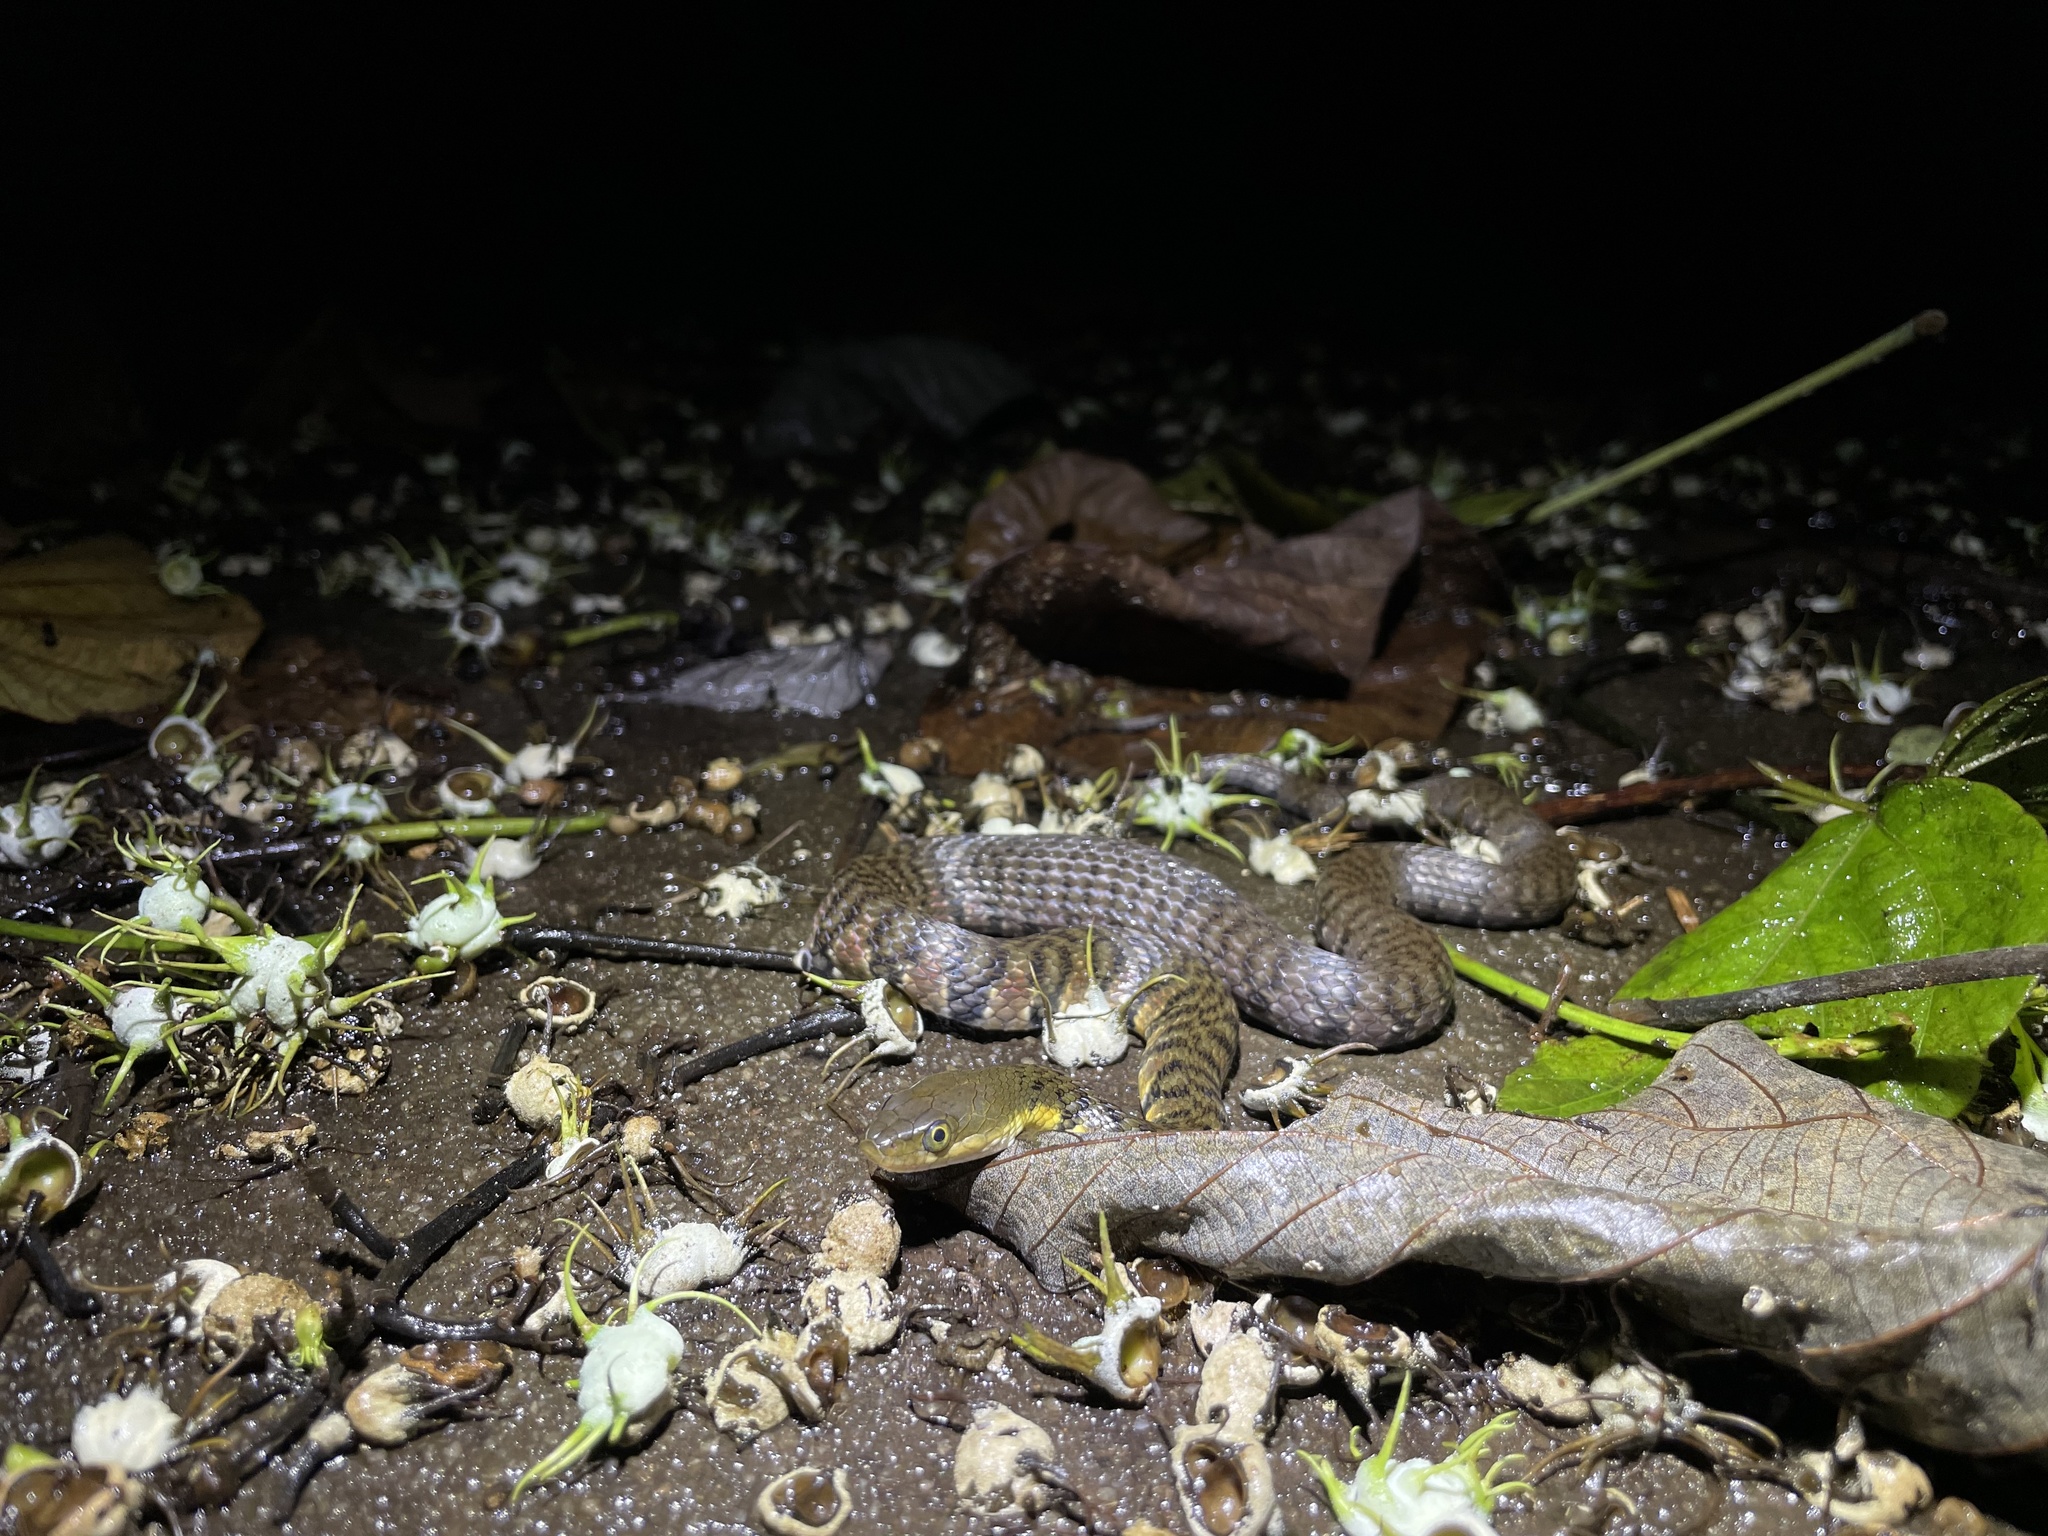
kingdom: Animalia
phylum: Chordata
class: Squamata
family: Colubridae
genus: Trimerodytes
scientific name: Trimerodytes percarinatus
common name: Eastern water snake
